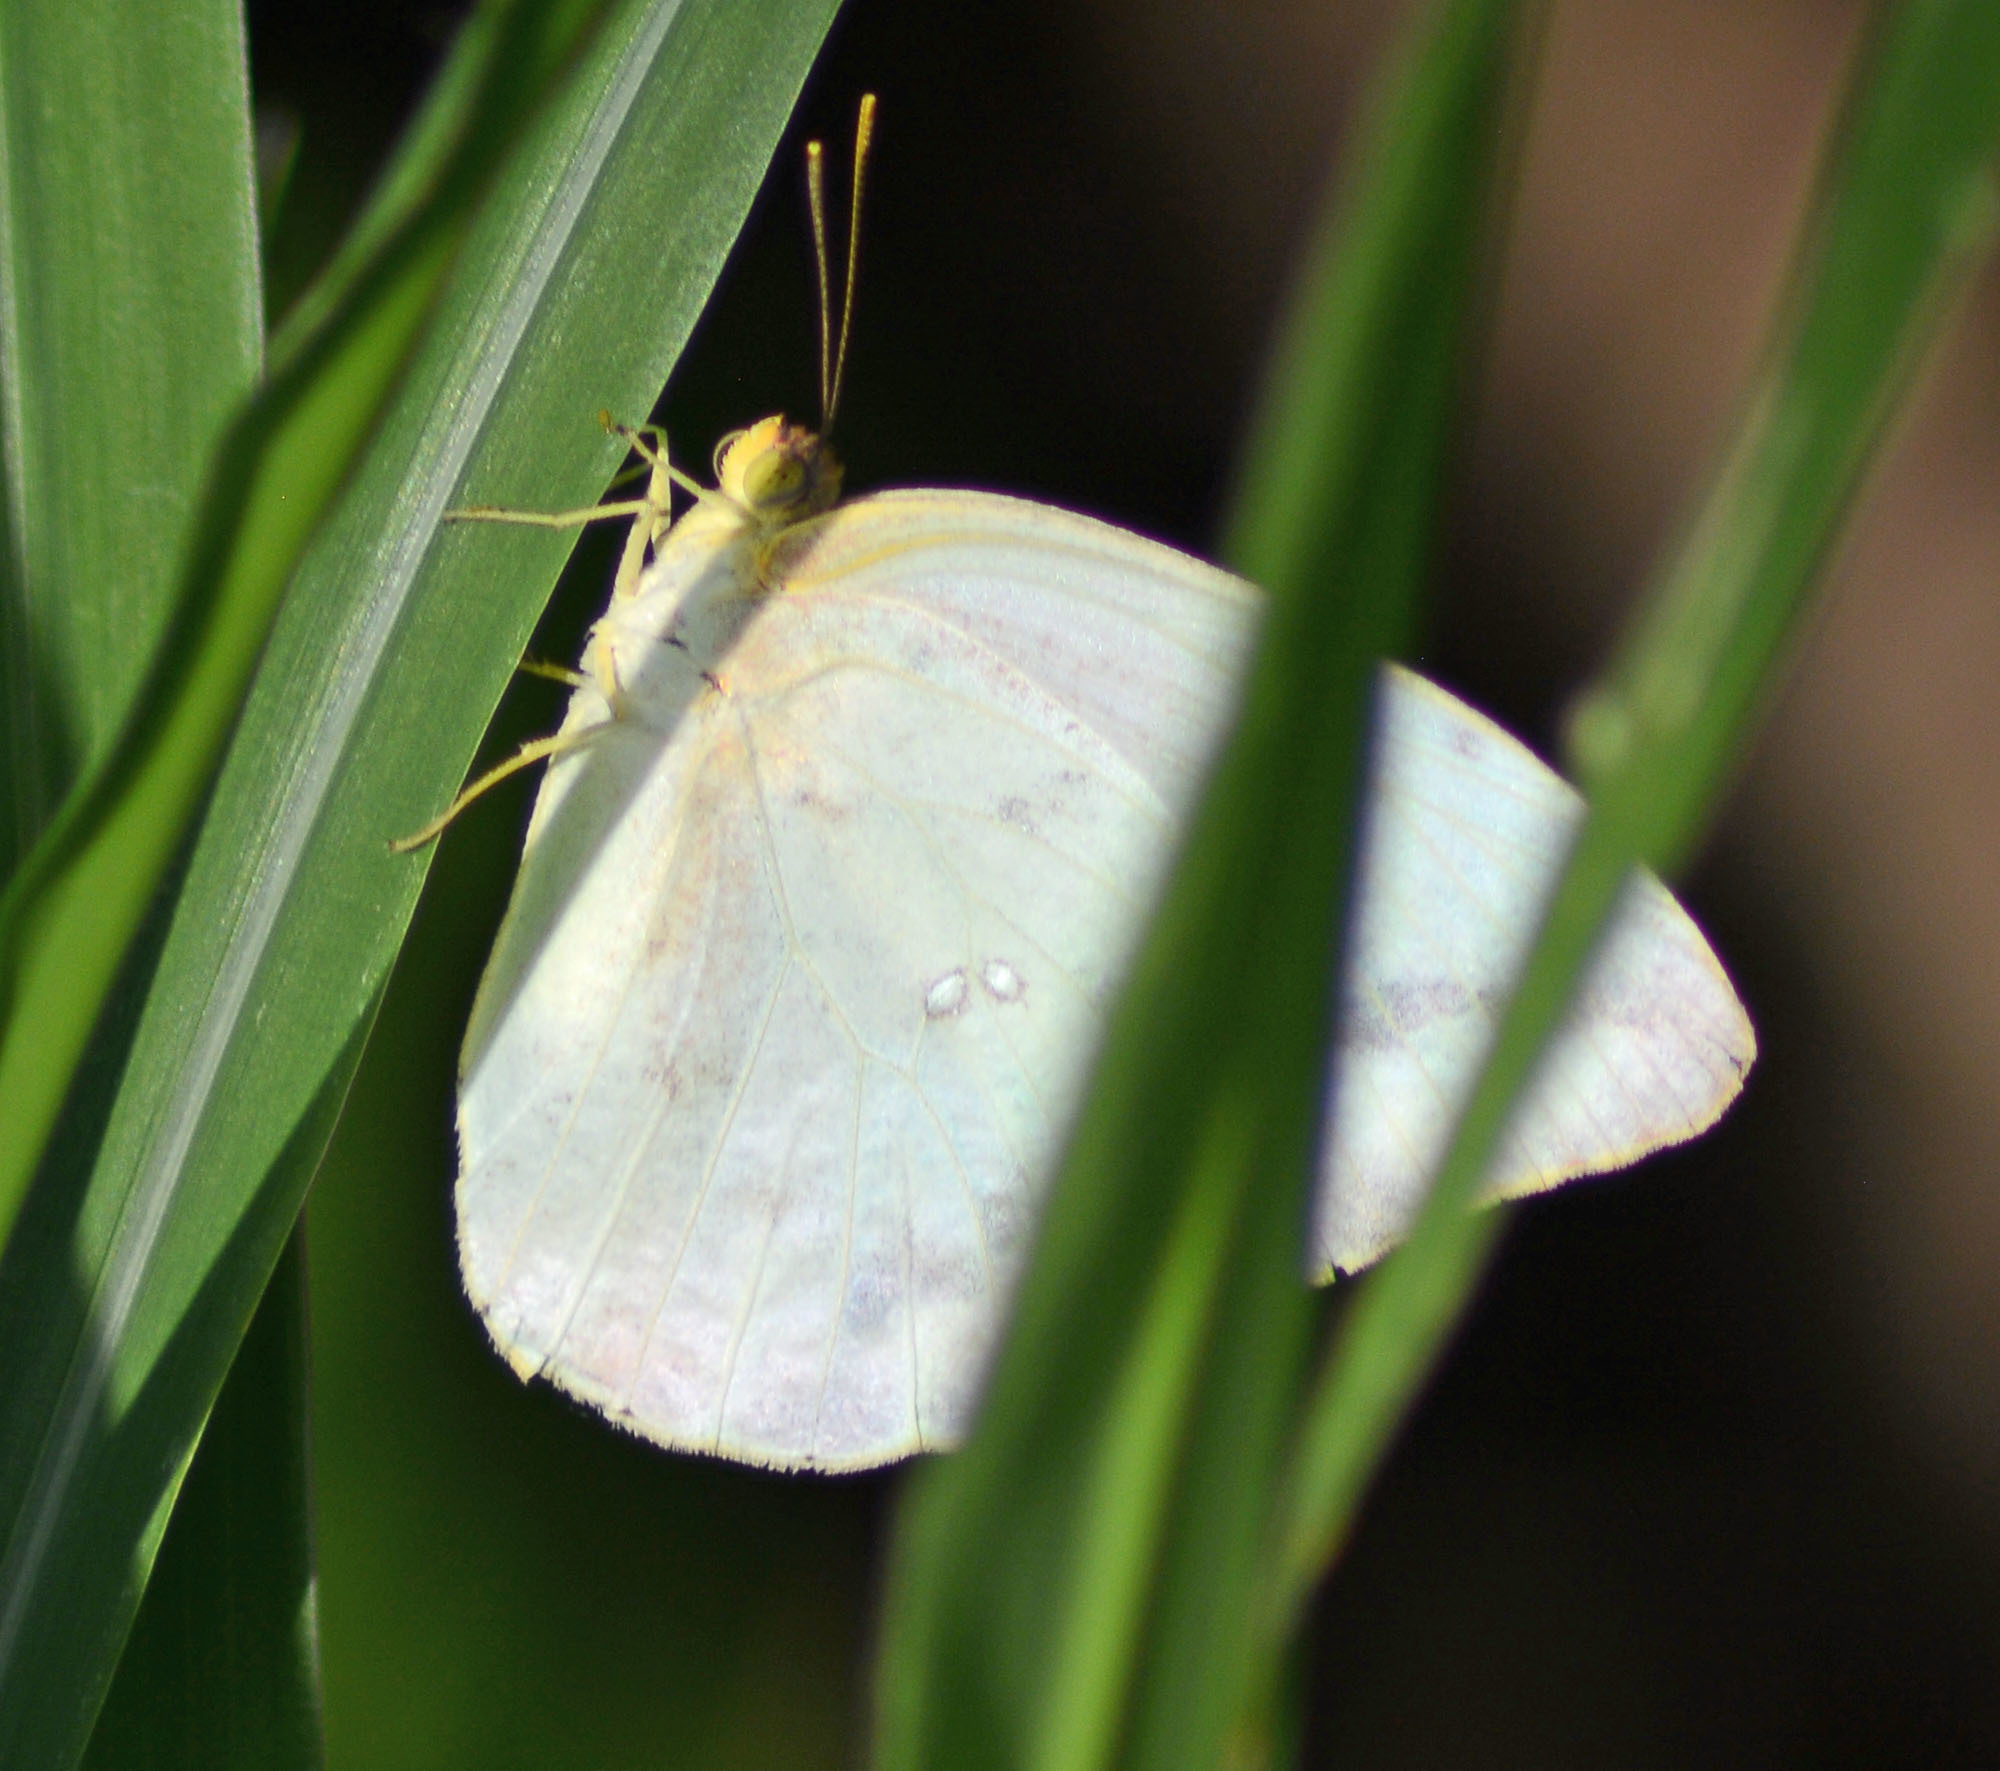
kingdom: Animalia
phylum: Arthropoda
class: Insecta
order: Lepidoptera
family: Pieridae
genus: Phoebis
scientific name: Phoebis agarithe
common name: Large orange sulphur
